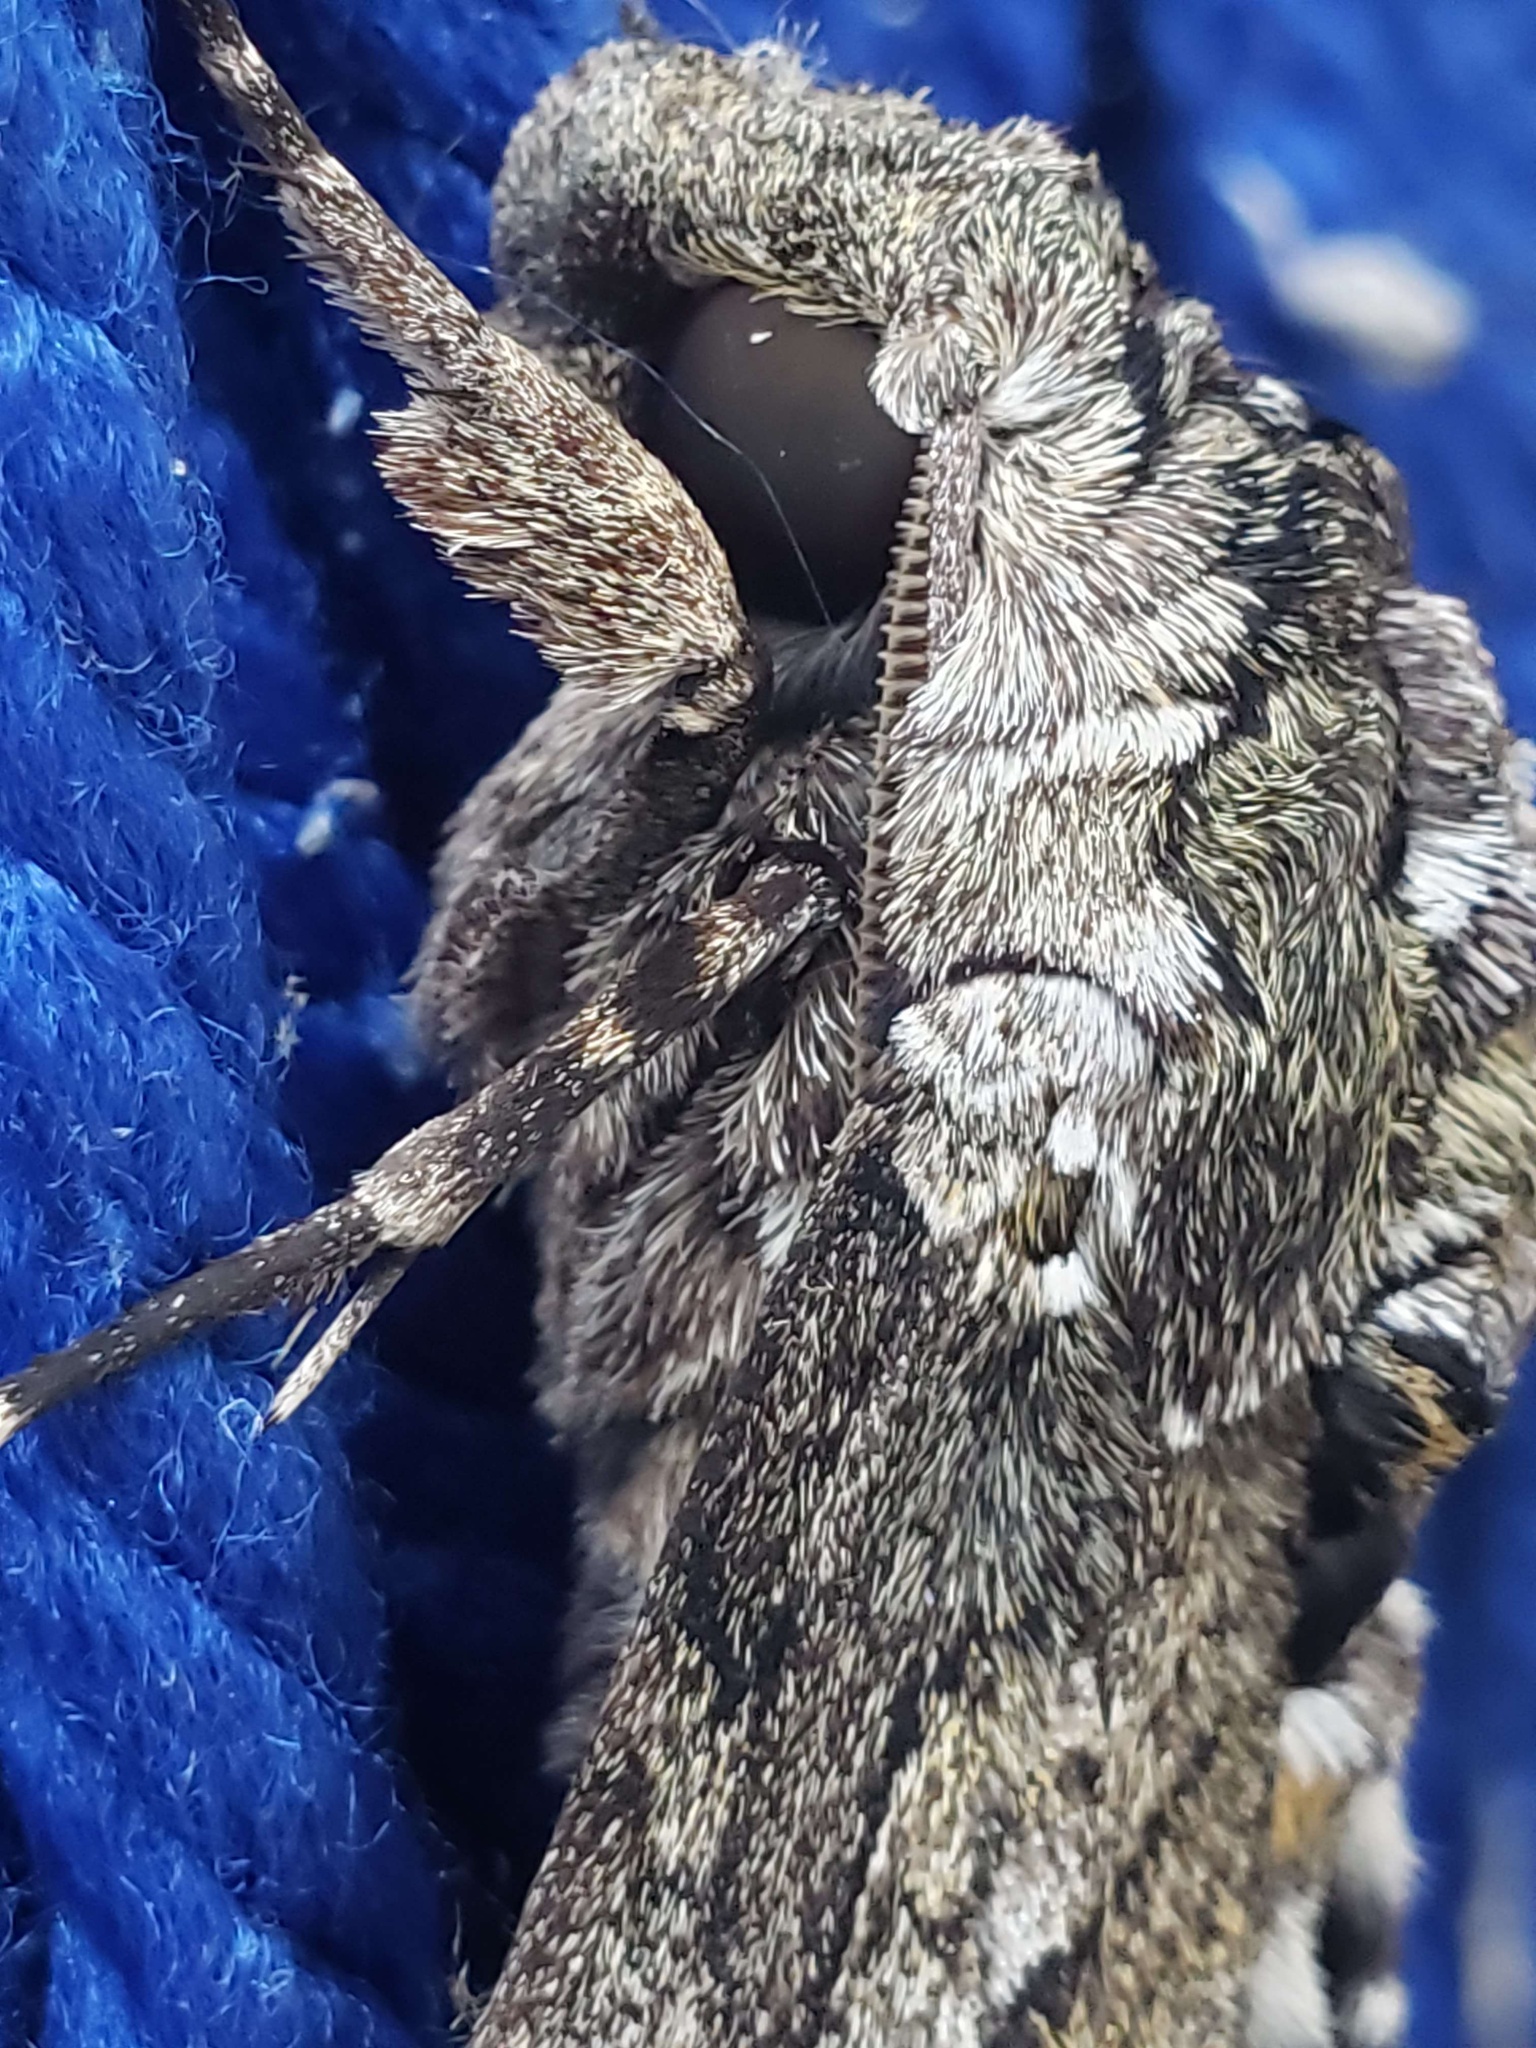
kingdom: Animalia
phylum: Arthropoda
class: Insecta
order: Lepidoptera
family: Sphingidae
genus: Manduca
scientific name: Manduca sexta
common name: Carolina sphinx
